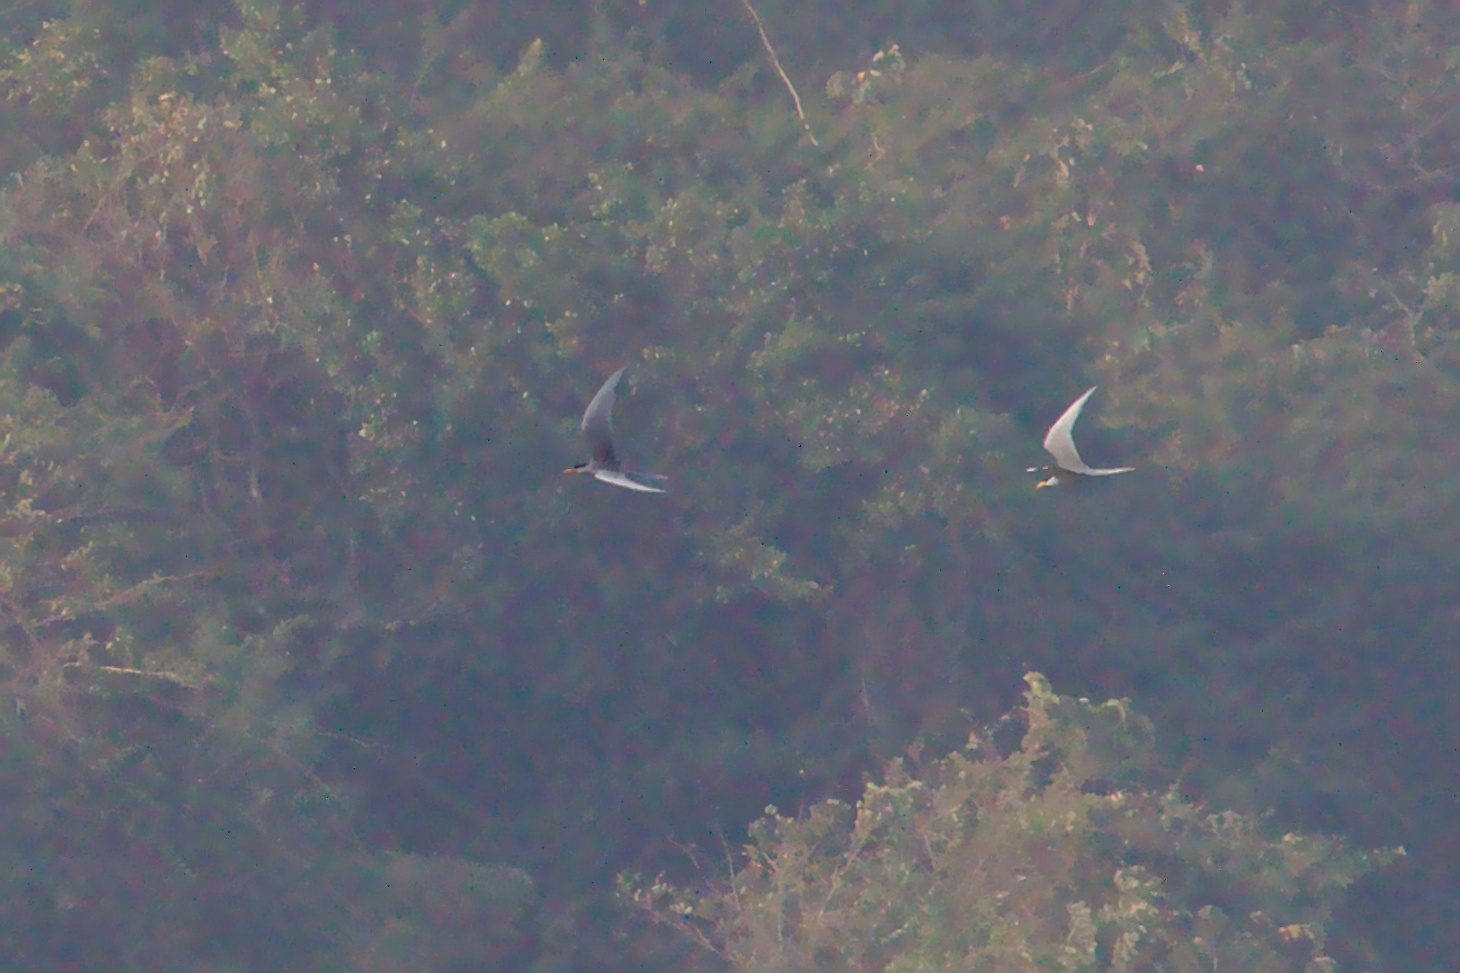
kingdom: Animalia
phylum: Chordata
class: Aves
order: Charadriiformes
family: Laridae
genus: Sterna
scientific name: Sterna aurantia
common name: River tern
